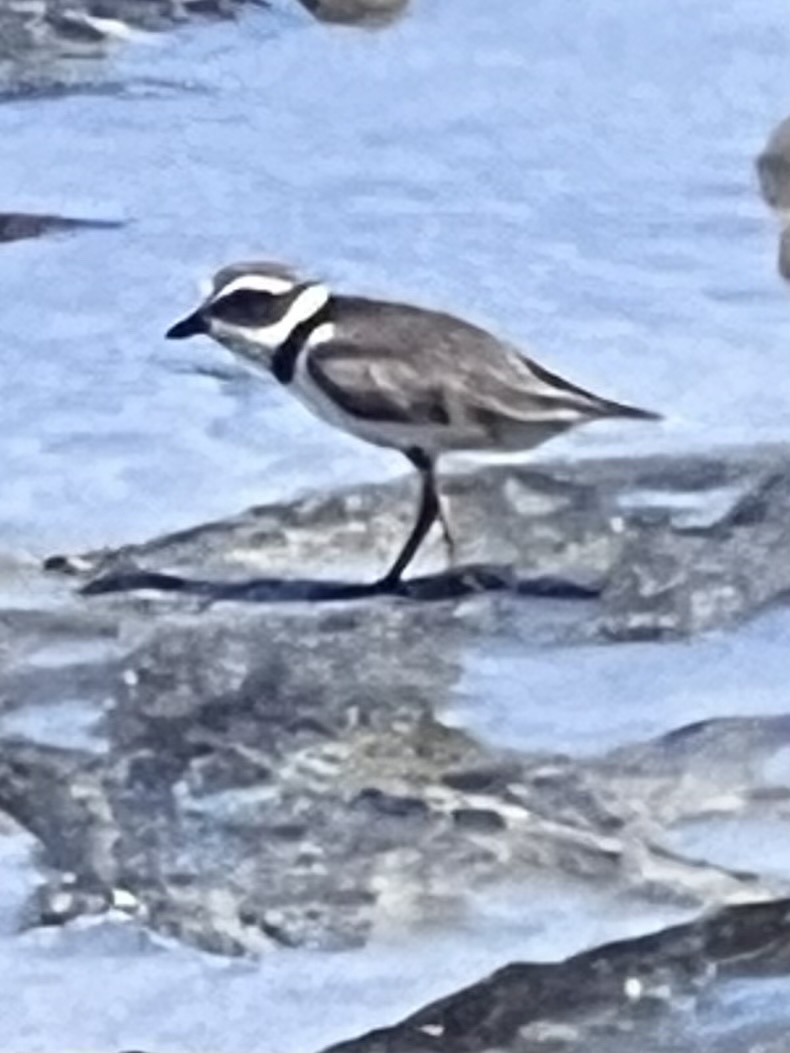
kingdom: Animalia
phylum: Chordata
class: Aves
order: Charadriiformes
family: Charadriidae
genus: Charadrius
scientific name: Charadrius semipalmatus
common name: Semipalmated plover
